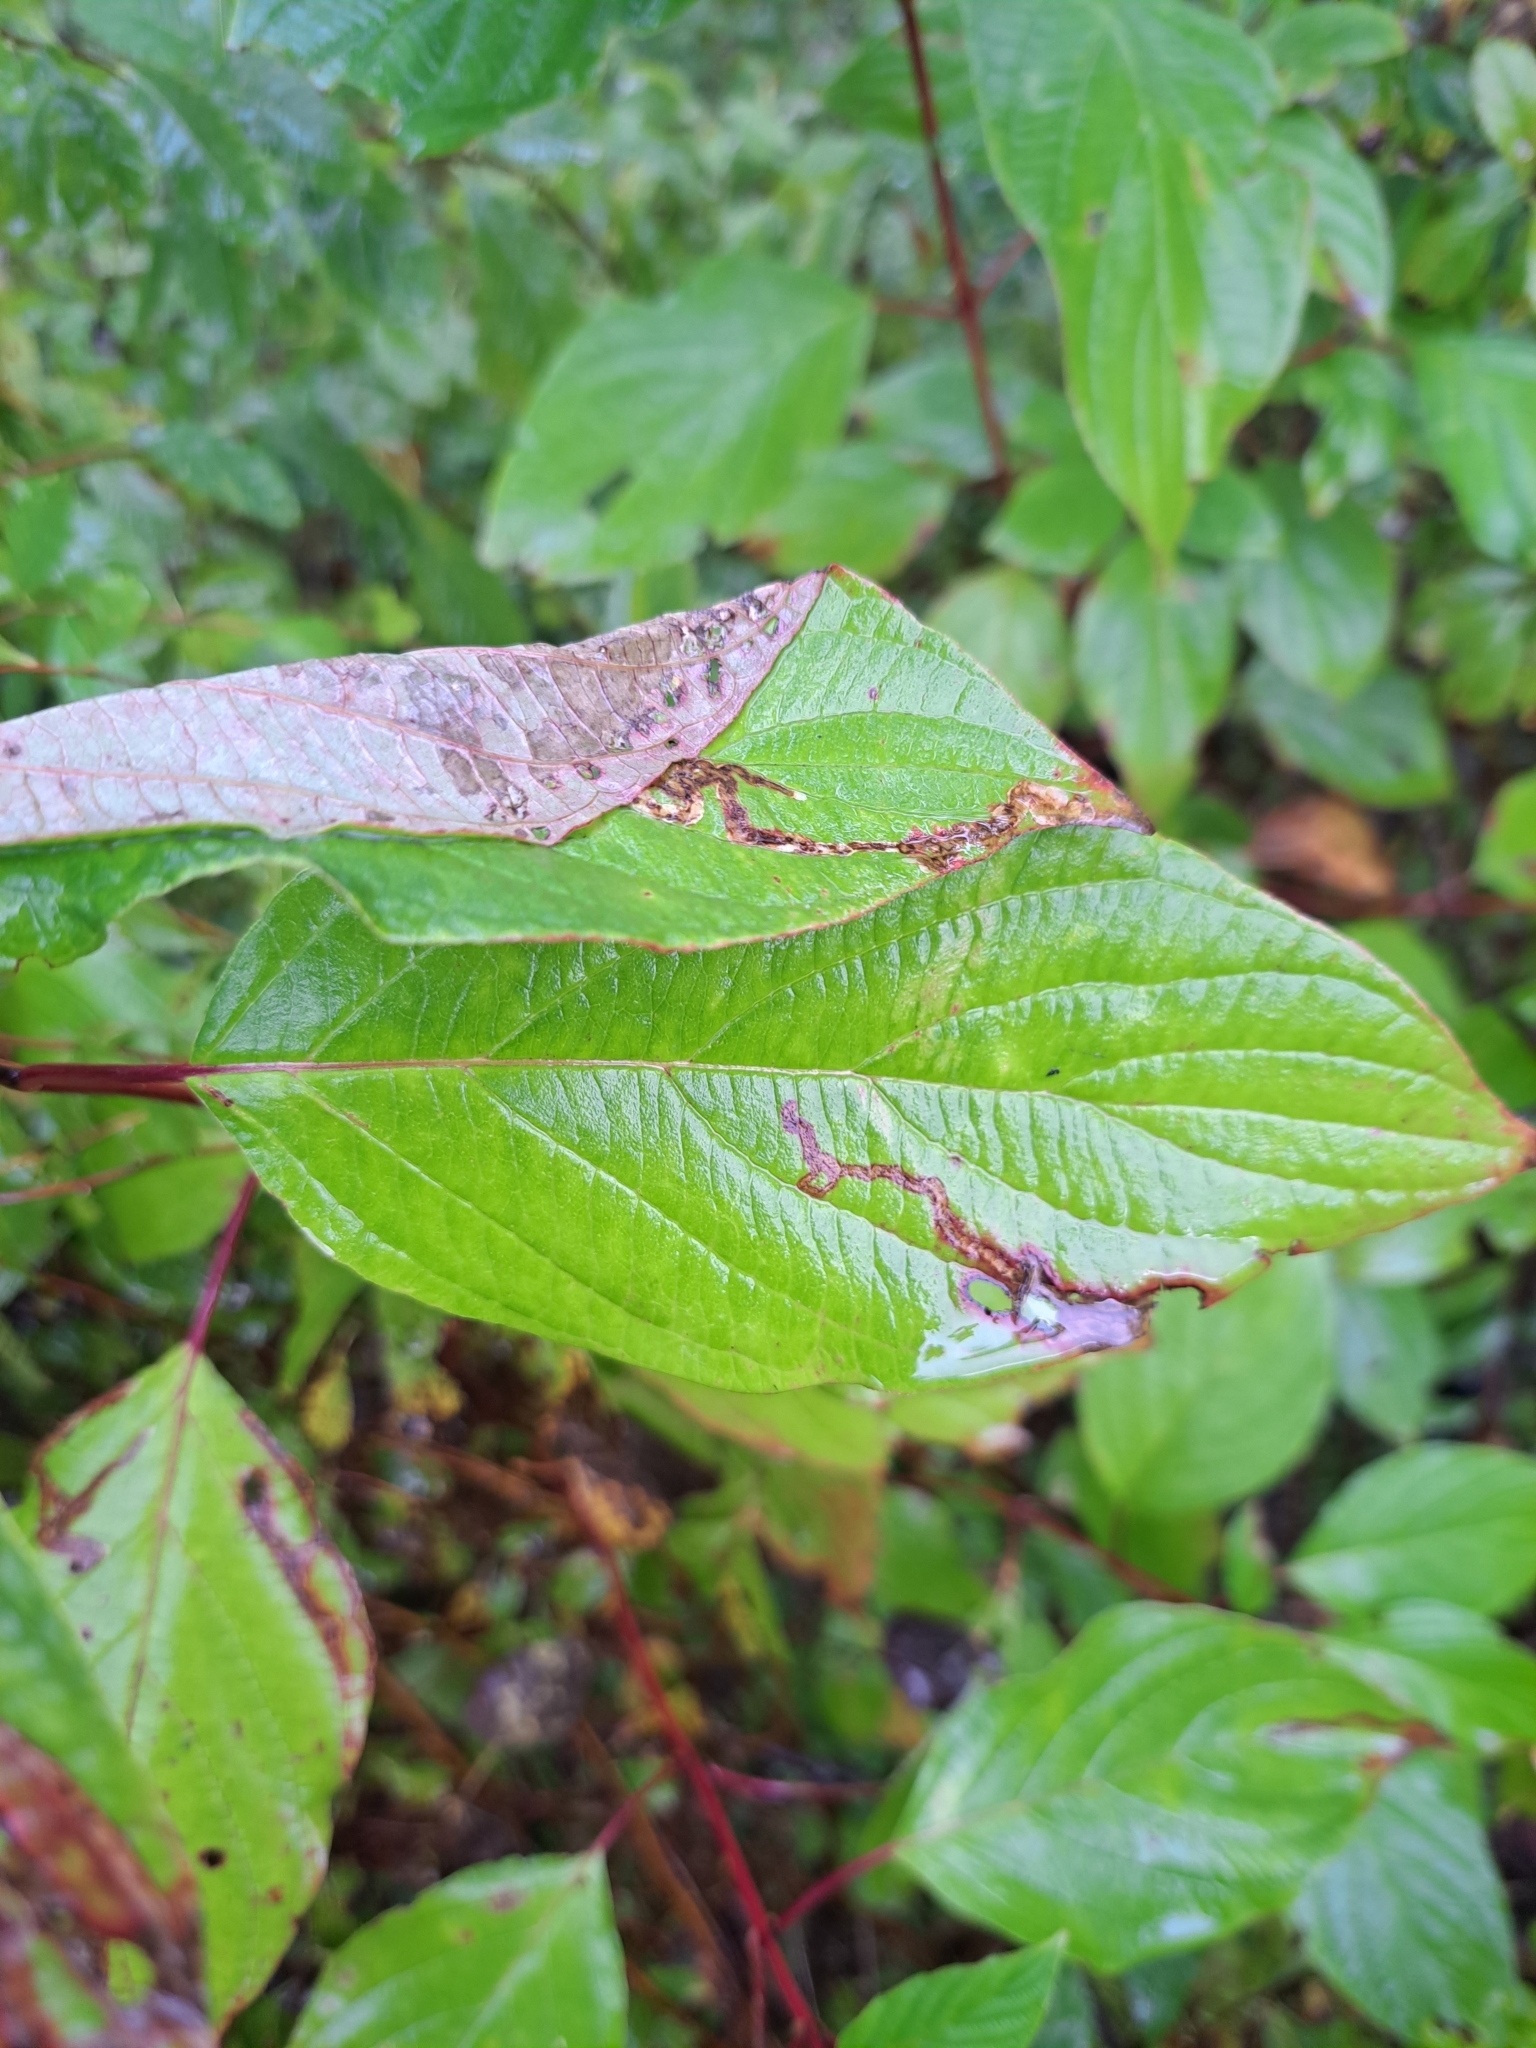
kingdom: Animalia
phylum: Arthropoda
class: Insecta
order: Diptera
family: Agromyzidae
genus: Phytomyza
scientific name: Phytomyza agromyzina
